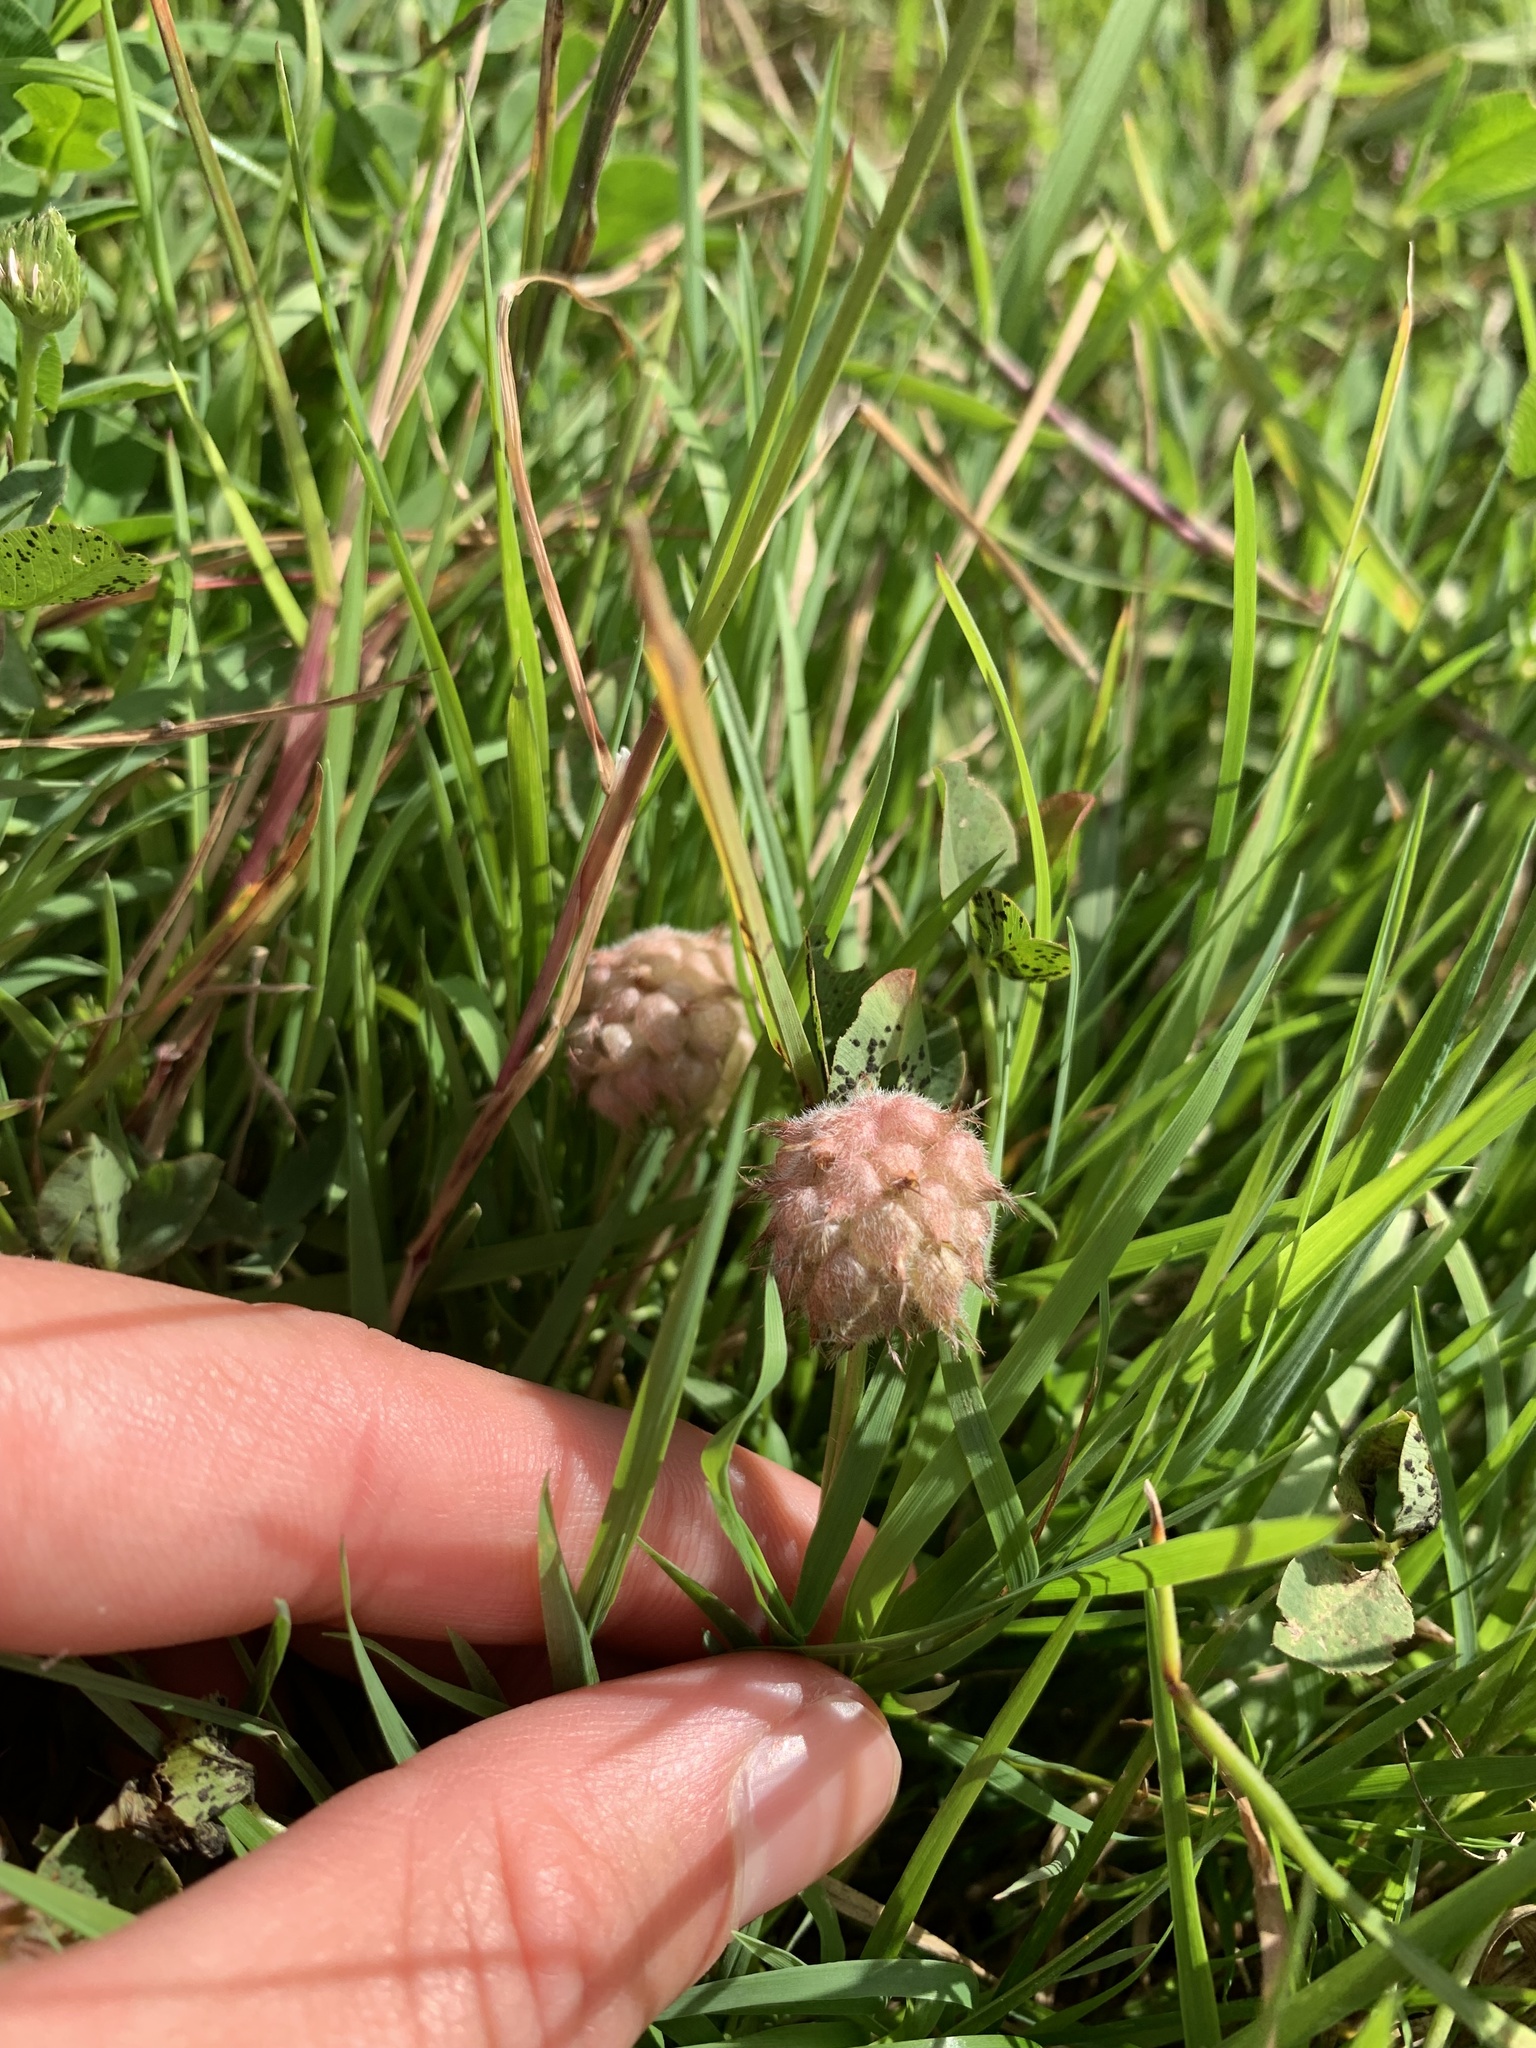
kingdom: Plantae
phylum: Tracheophyta
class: Magnoliopsida
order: Fabales
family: Fabaceae
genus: Trifolium
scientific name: Trifolium fragiferum
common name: Strawberry clover
